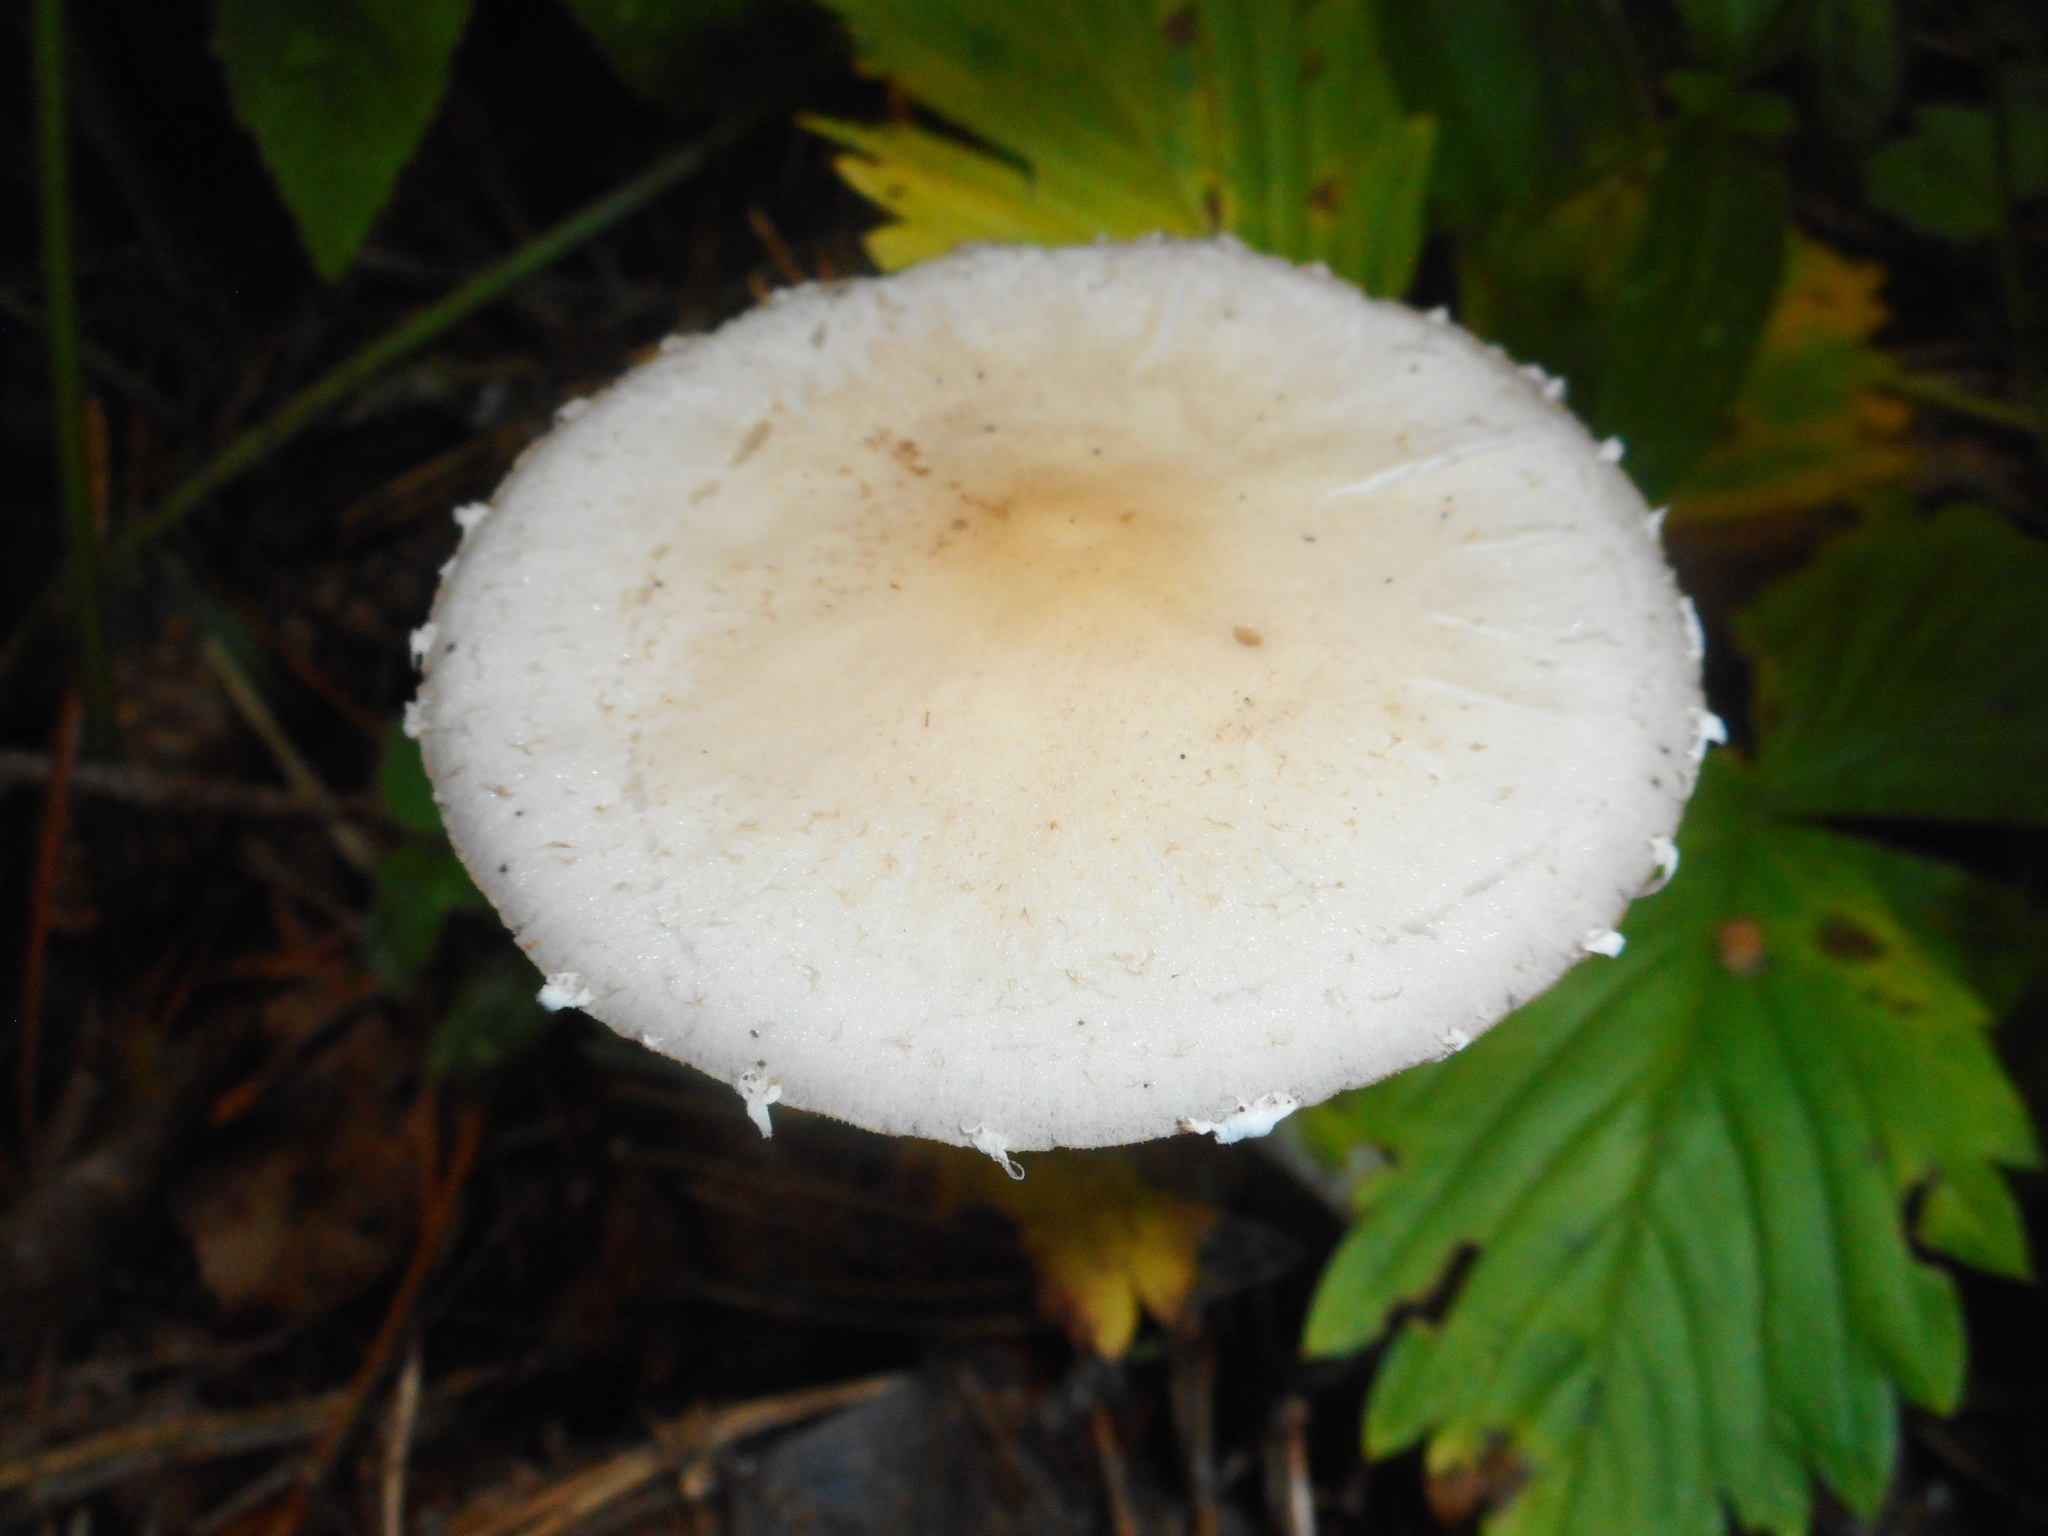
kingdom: Fungi
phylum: Basidiomycota
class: Agaricomycetes
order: Agaricales
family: Psathyrellaceae
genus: Candolleomyces
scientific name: Candolleomyces candolleanus
